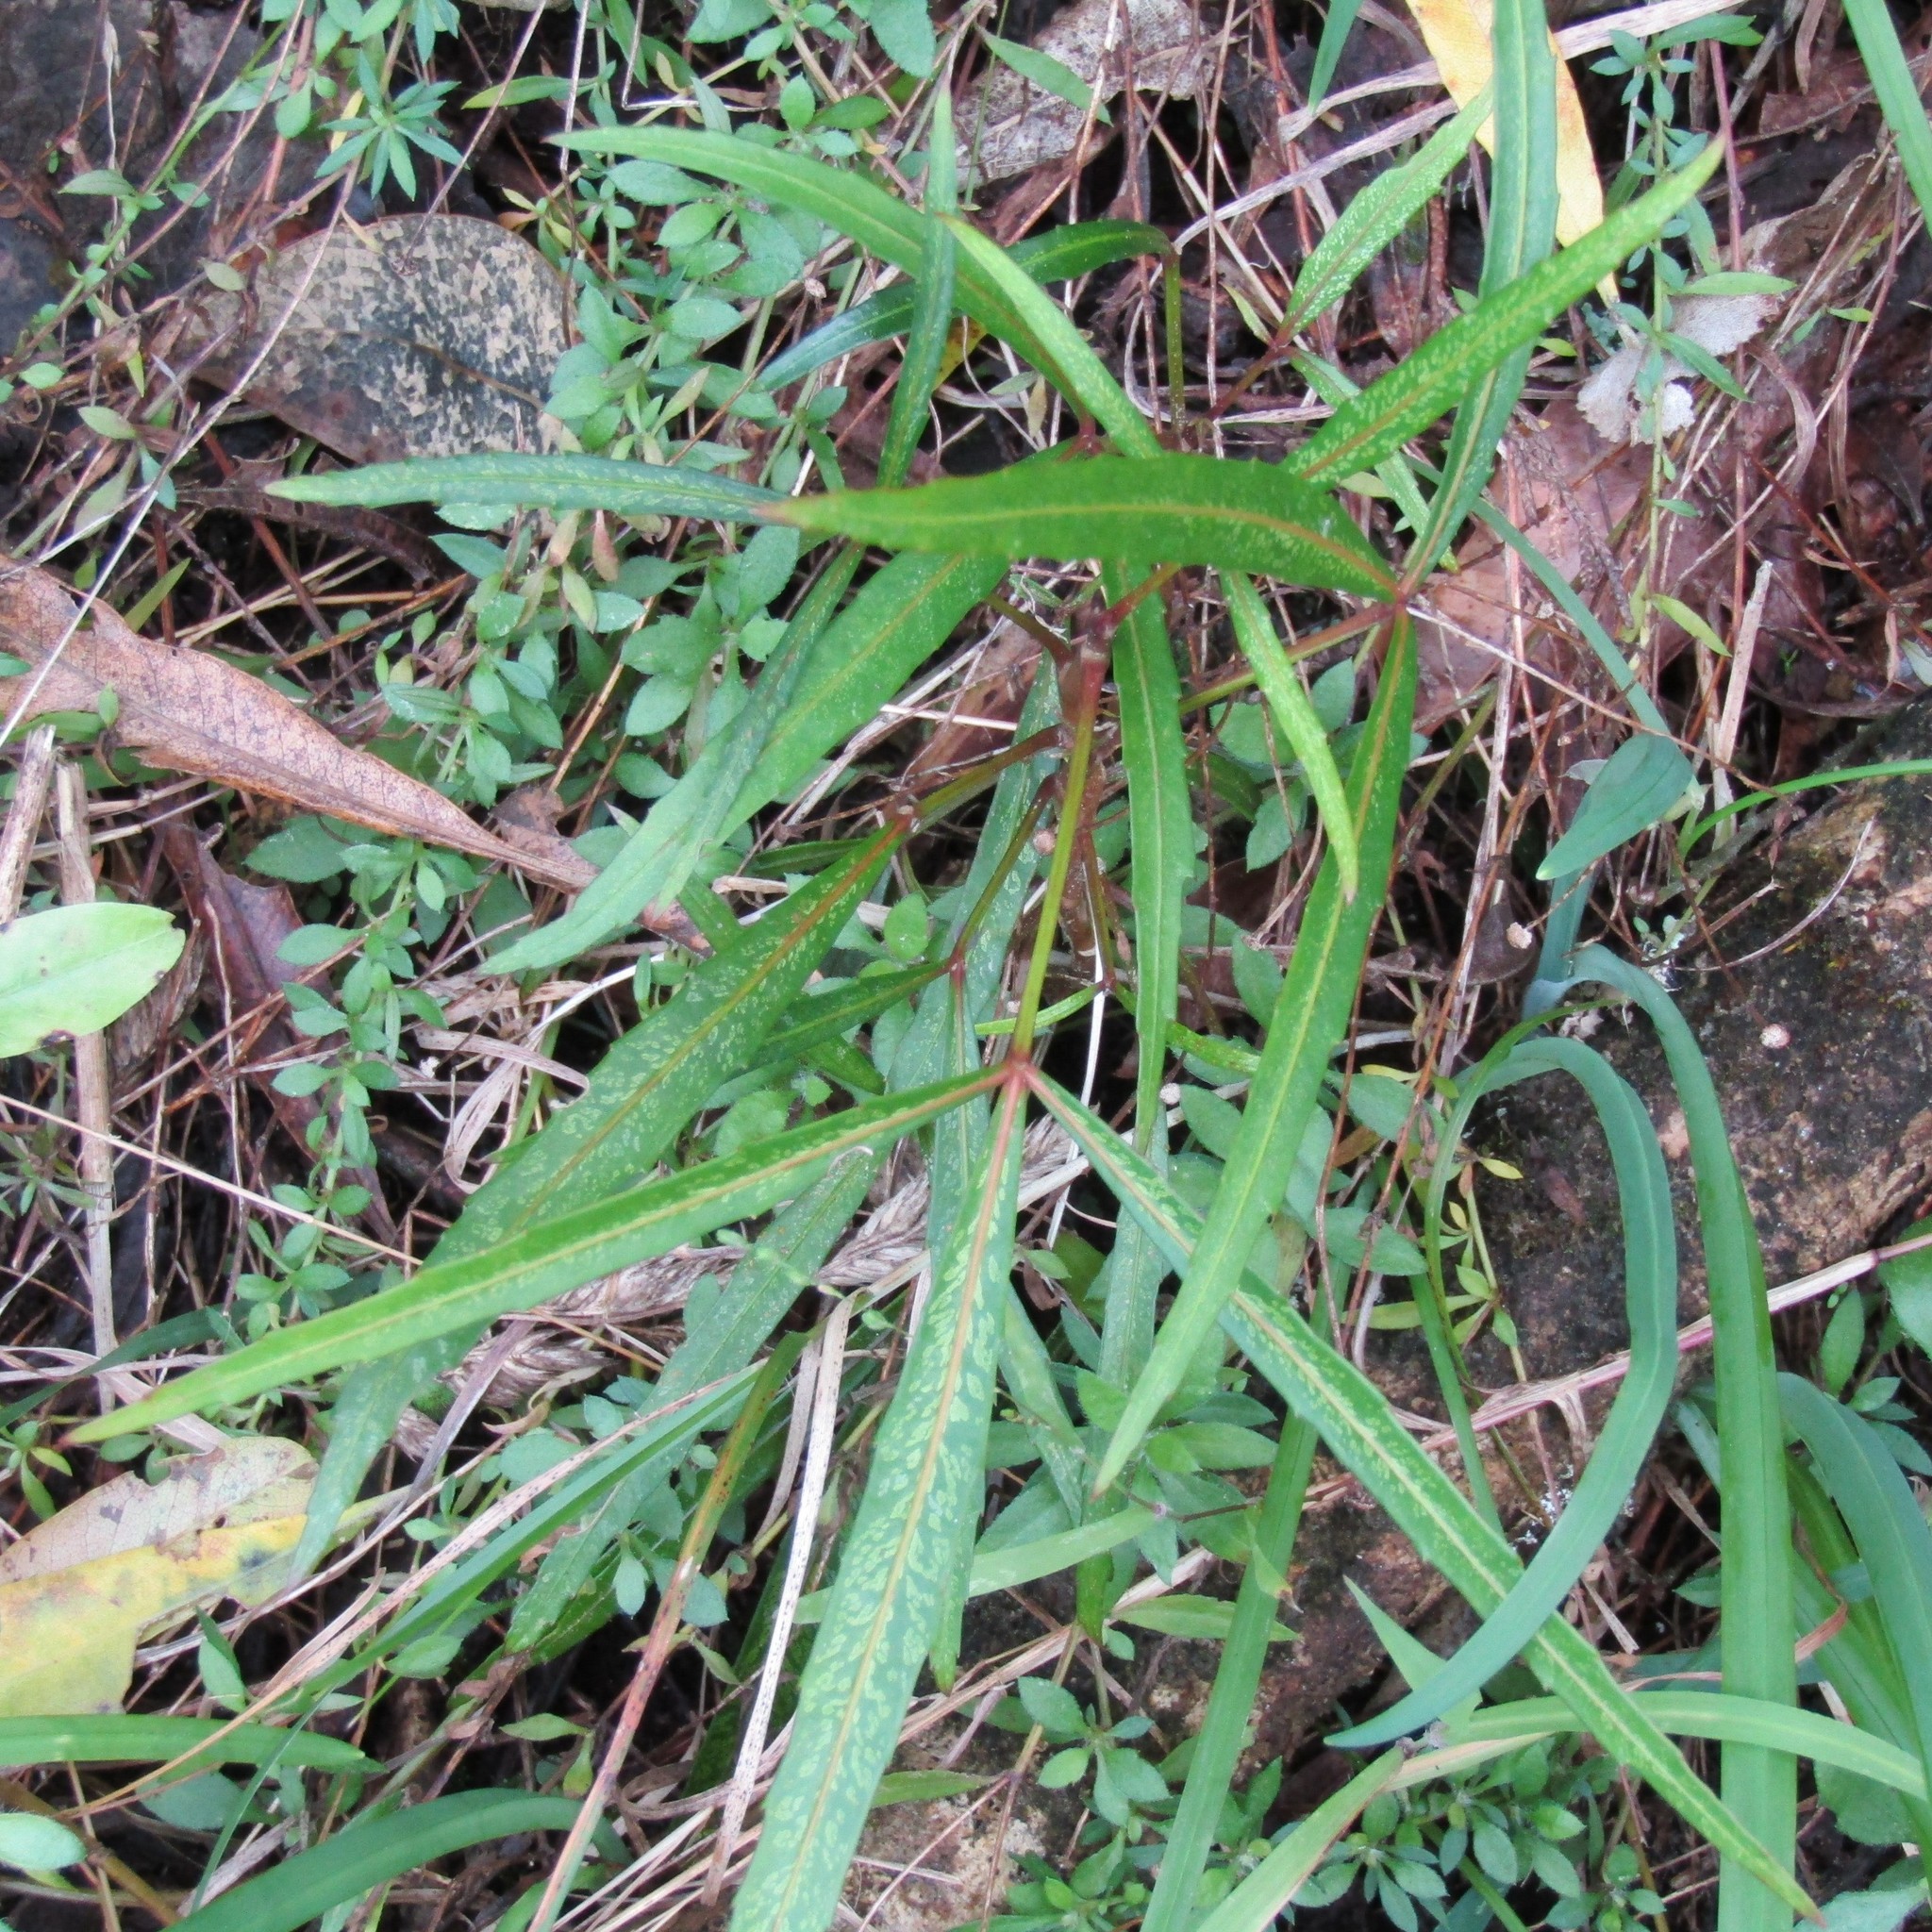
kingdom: Plantae
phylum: Tracheophyta
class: Magnoliopsida
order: Apiales
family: Araliaceae
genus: Pseudopanax
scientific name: Pseudopanax
